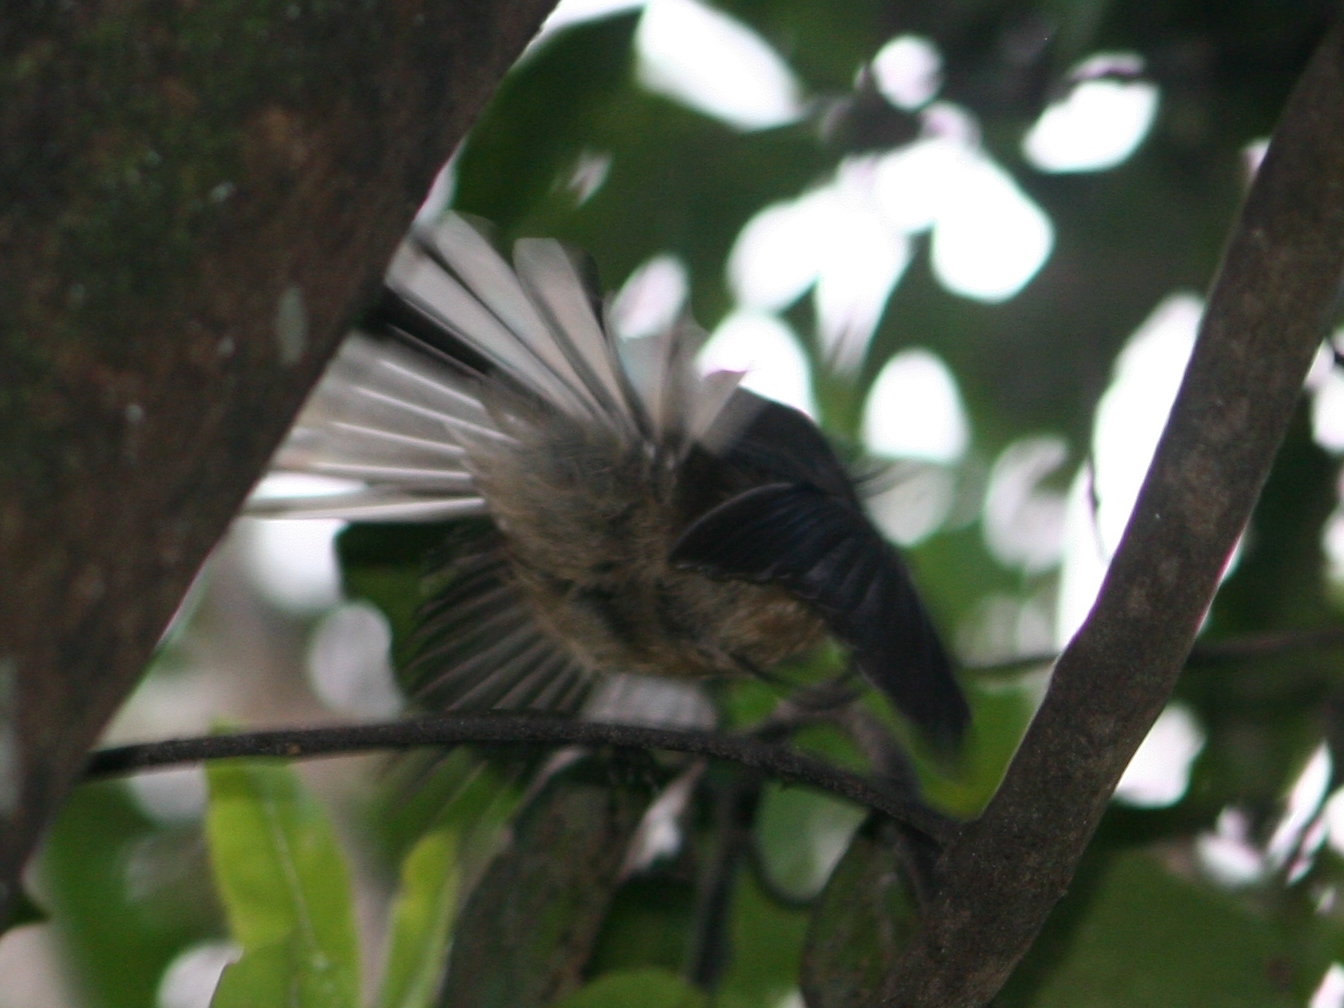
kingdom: Animalia
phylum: Chordata
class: Aves
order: Passeriformes
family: Rhipiduridae
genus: Rhipidura
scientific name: Rhipidura fuliginosa
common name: New zealand fantail
